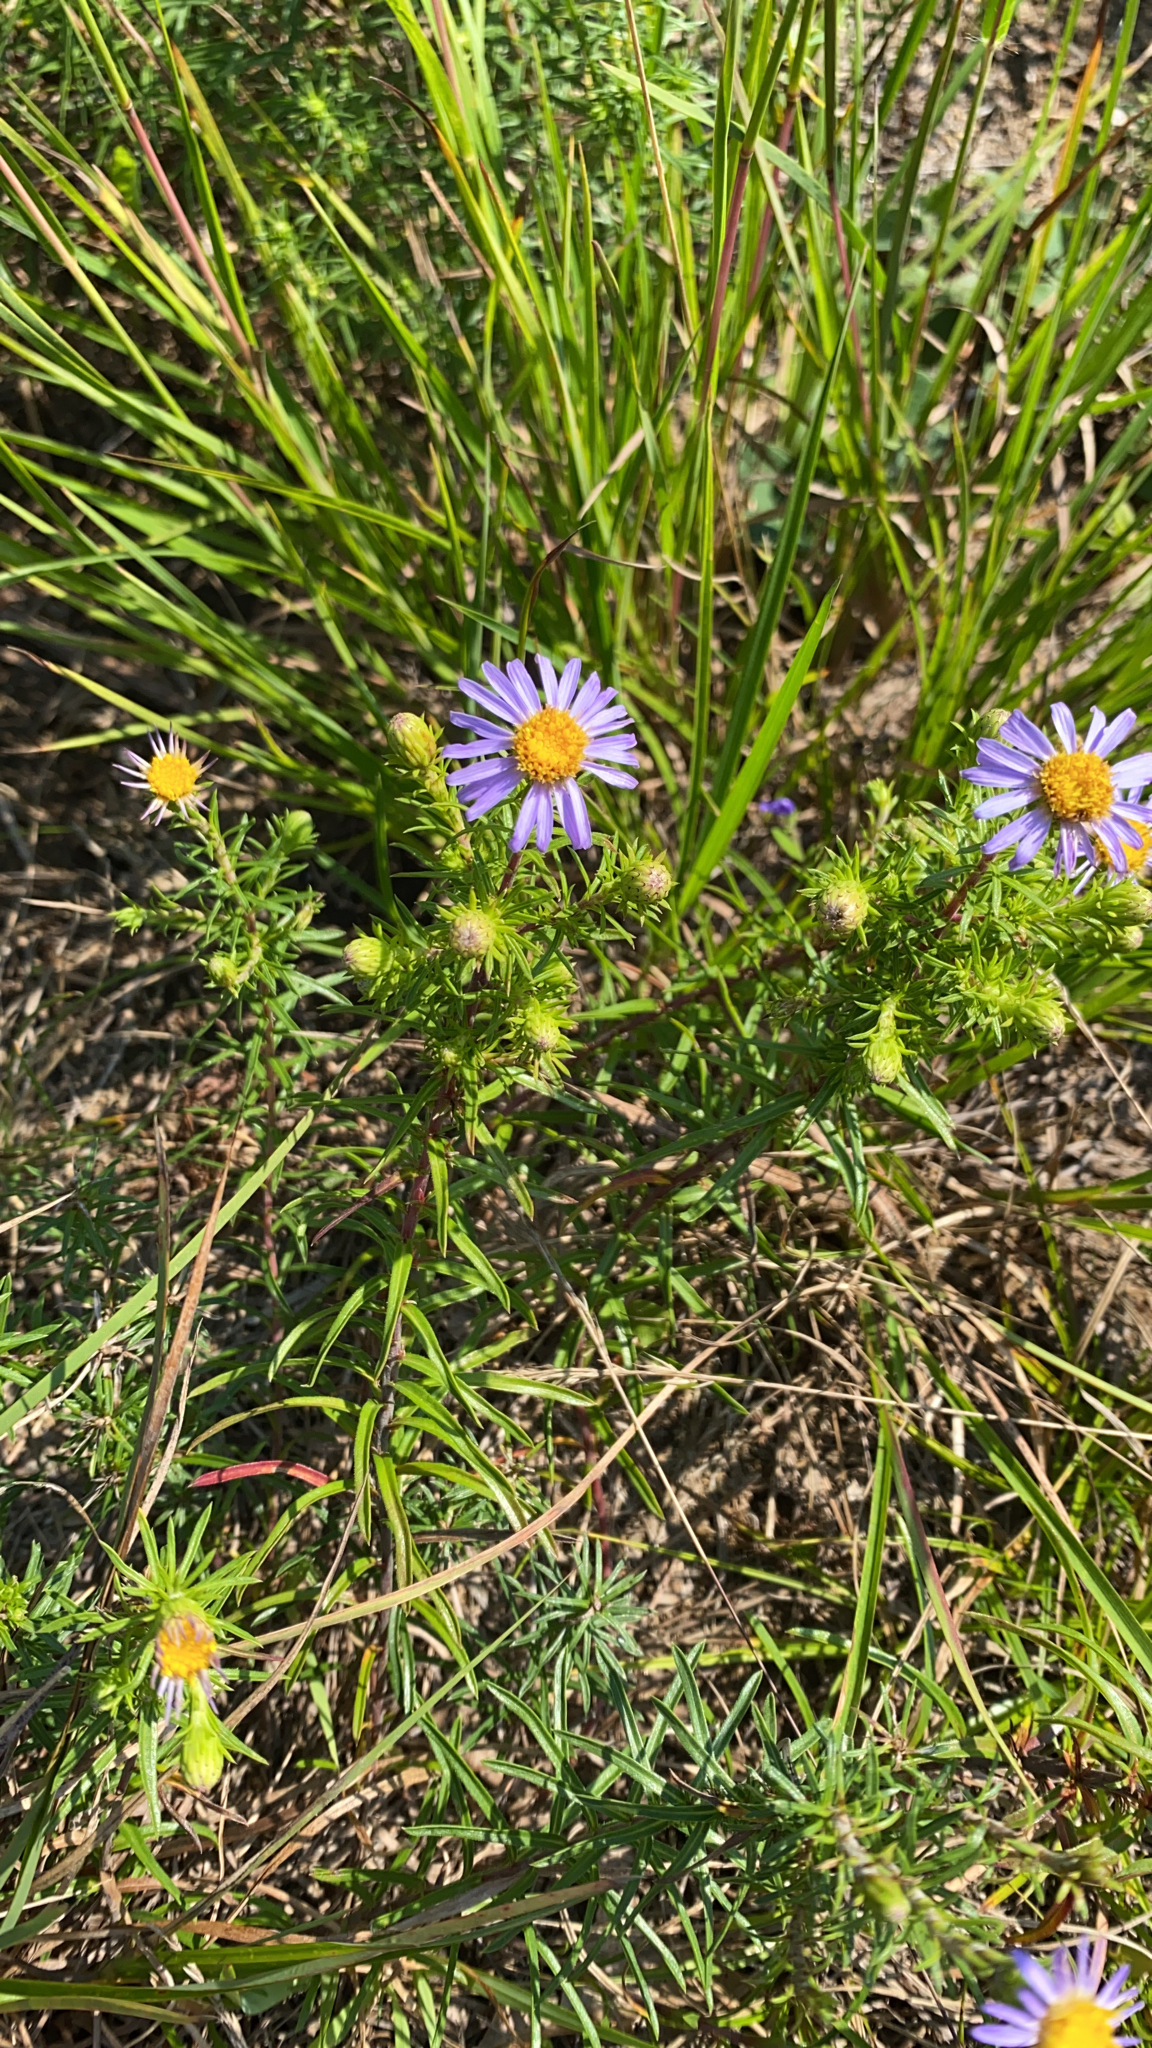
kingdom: Plantae
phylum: Tracheophyta
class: Magnoliopsida
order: Asterales
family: Asteraceae
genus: Ionactis
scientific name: Ionactis linariifolia
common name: Flax-leaf aster
